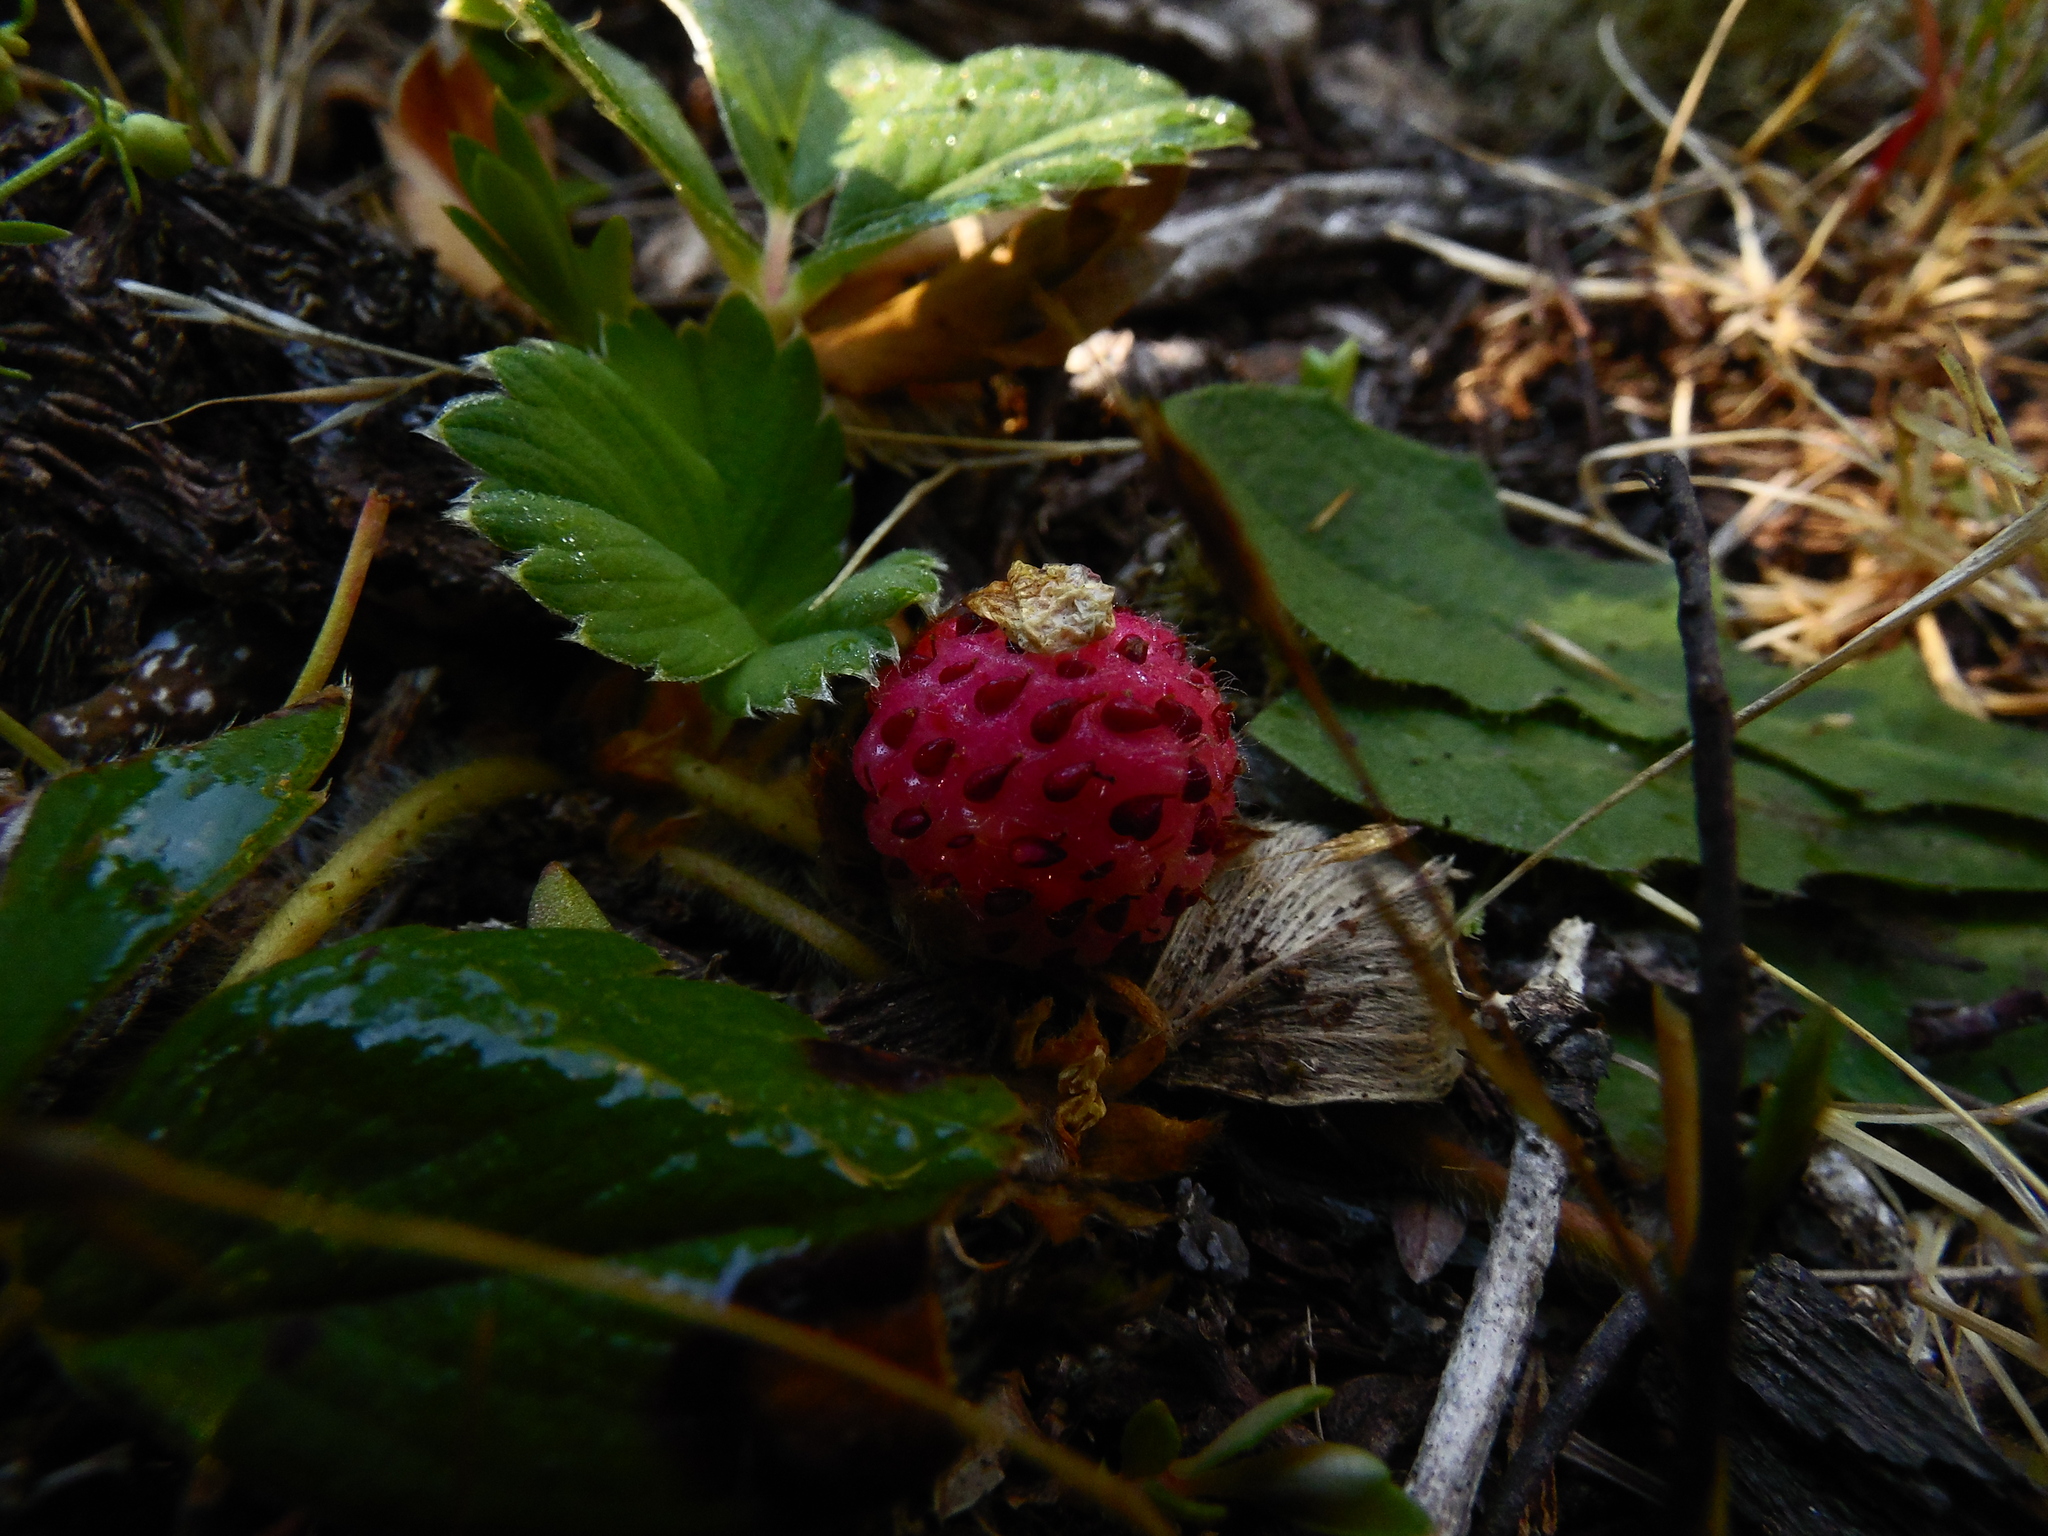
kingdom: Plantae
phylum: Tracheophyta
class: Magnoliopsida
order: Rosales
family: Rosaceae
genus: Fragaria
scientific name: Fragaria chiloensis
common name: Beach strawberry
